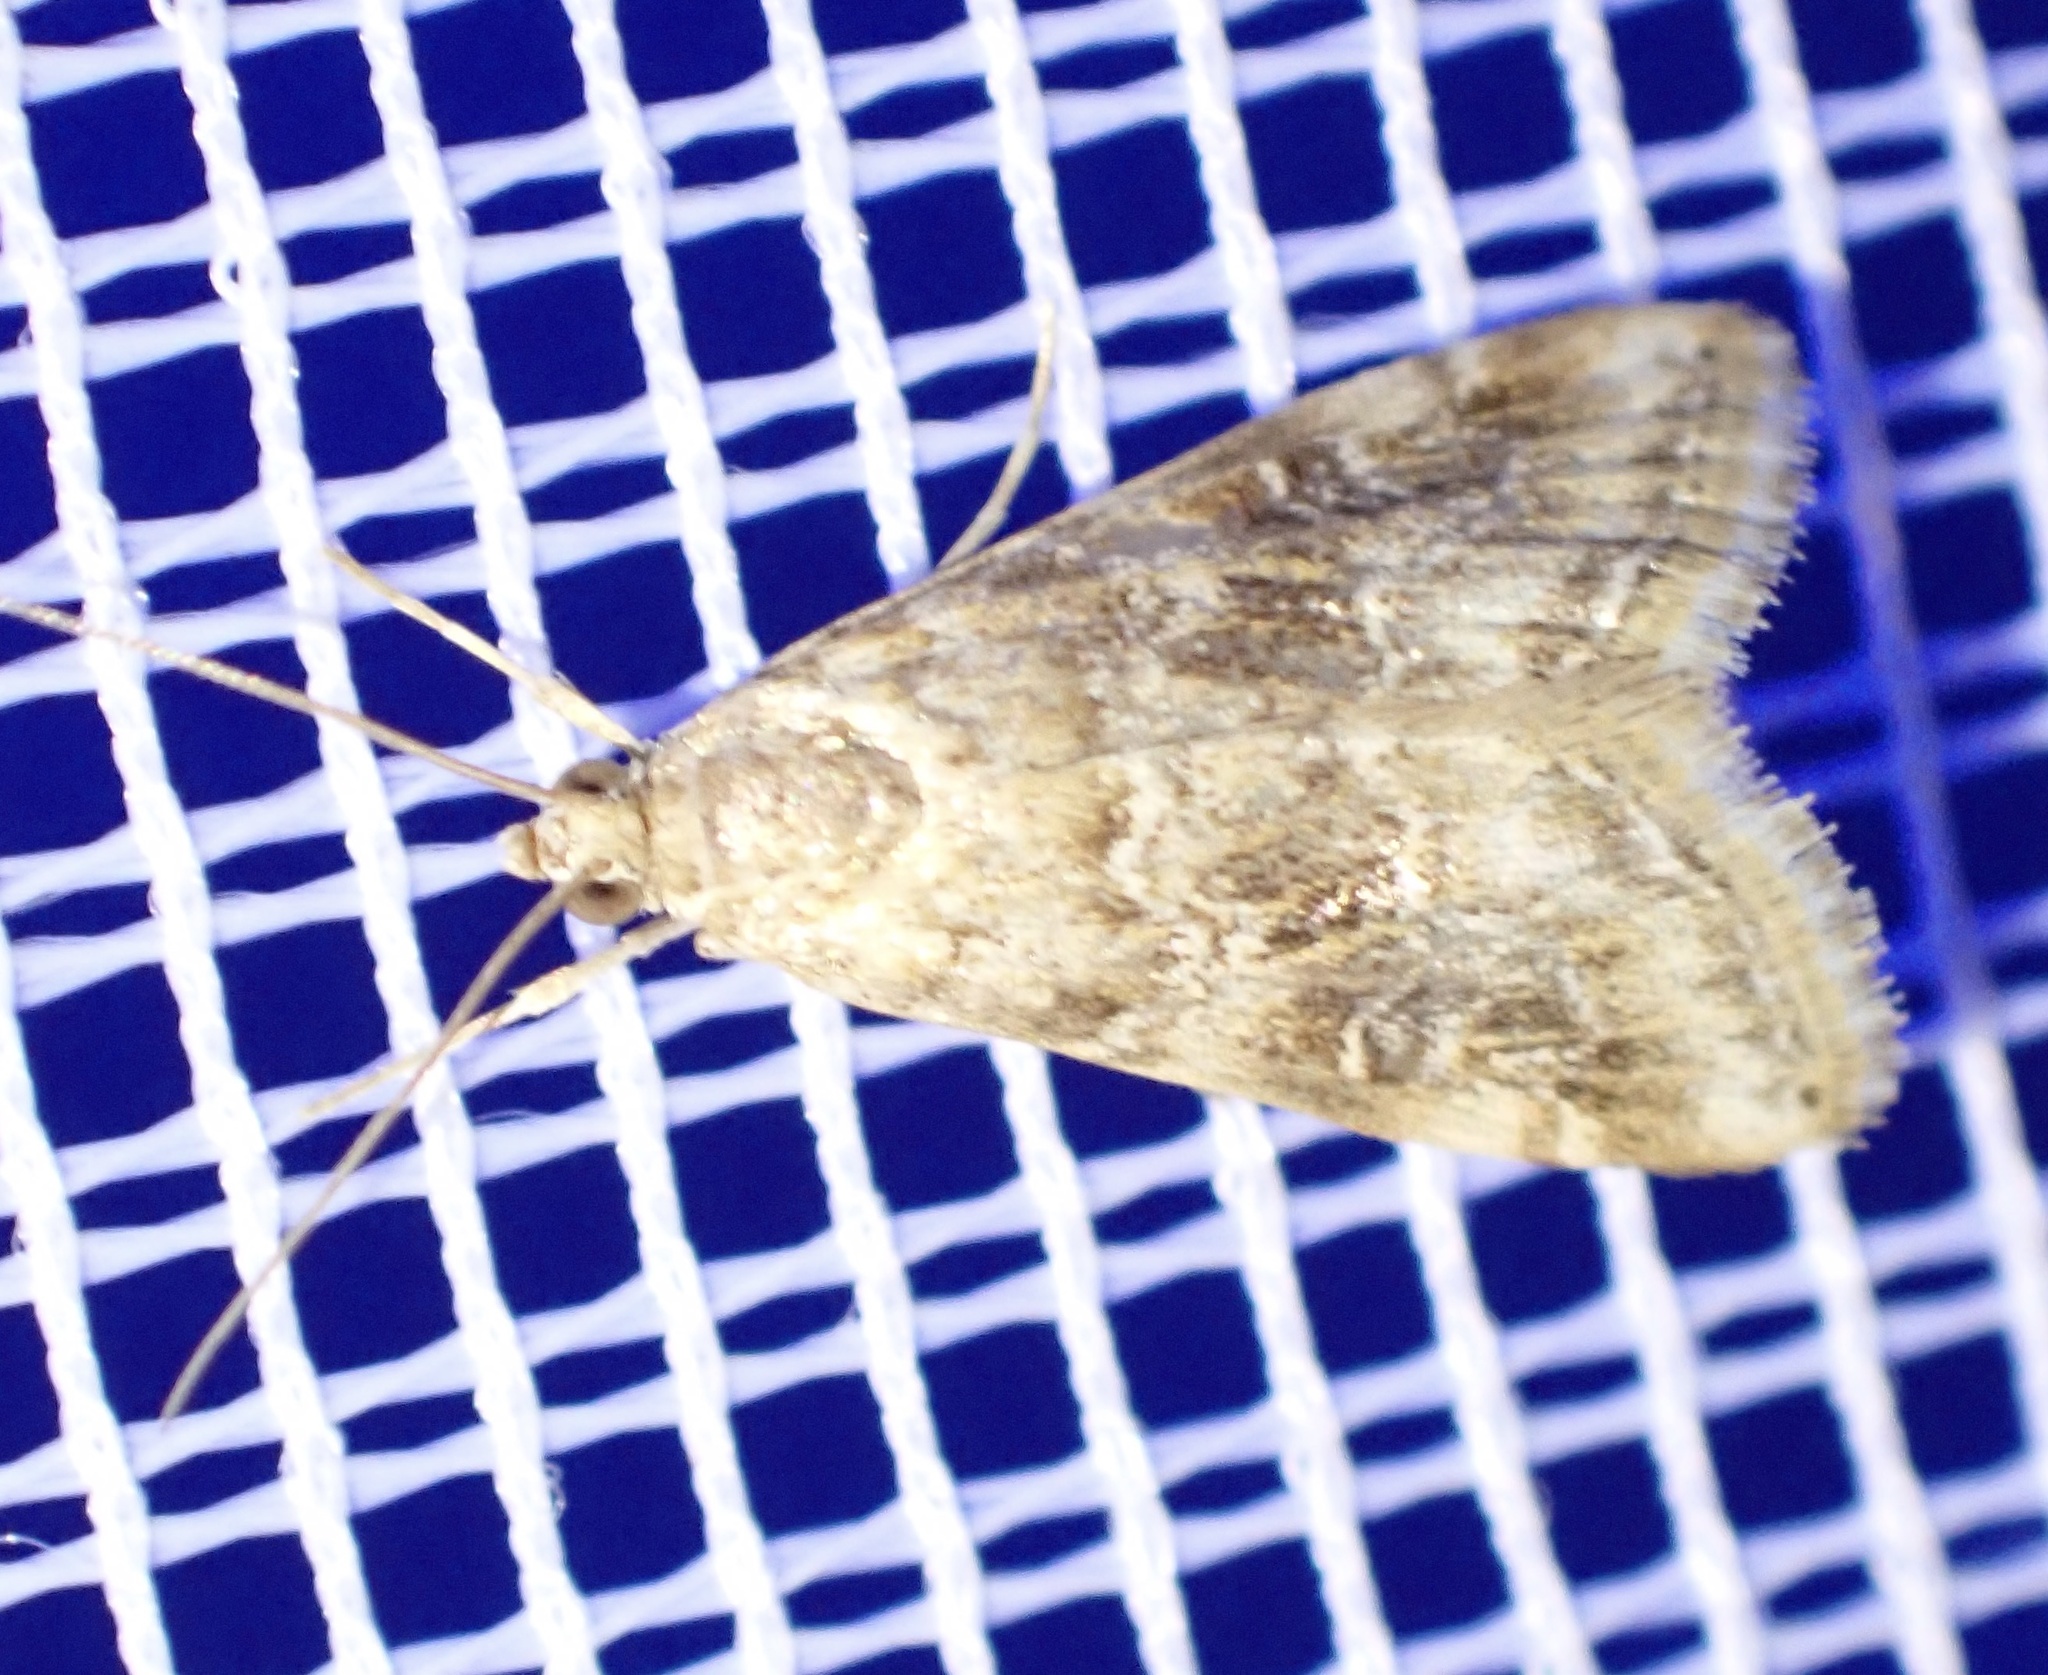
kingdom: Animalia
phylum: Arthropoda
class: Insecta
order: Lepidoptera
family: Crambidae
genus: Hellula
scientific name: Hellula undalis
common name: Cabbage webworm
